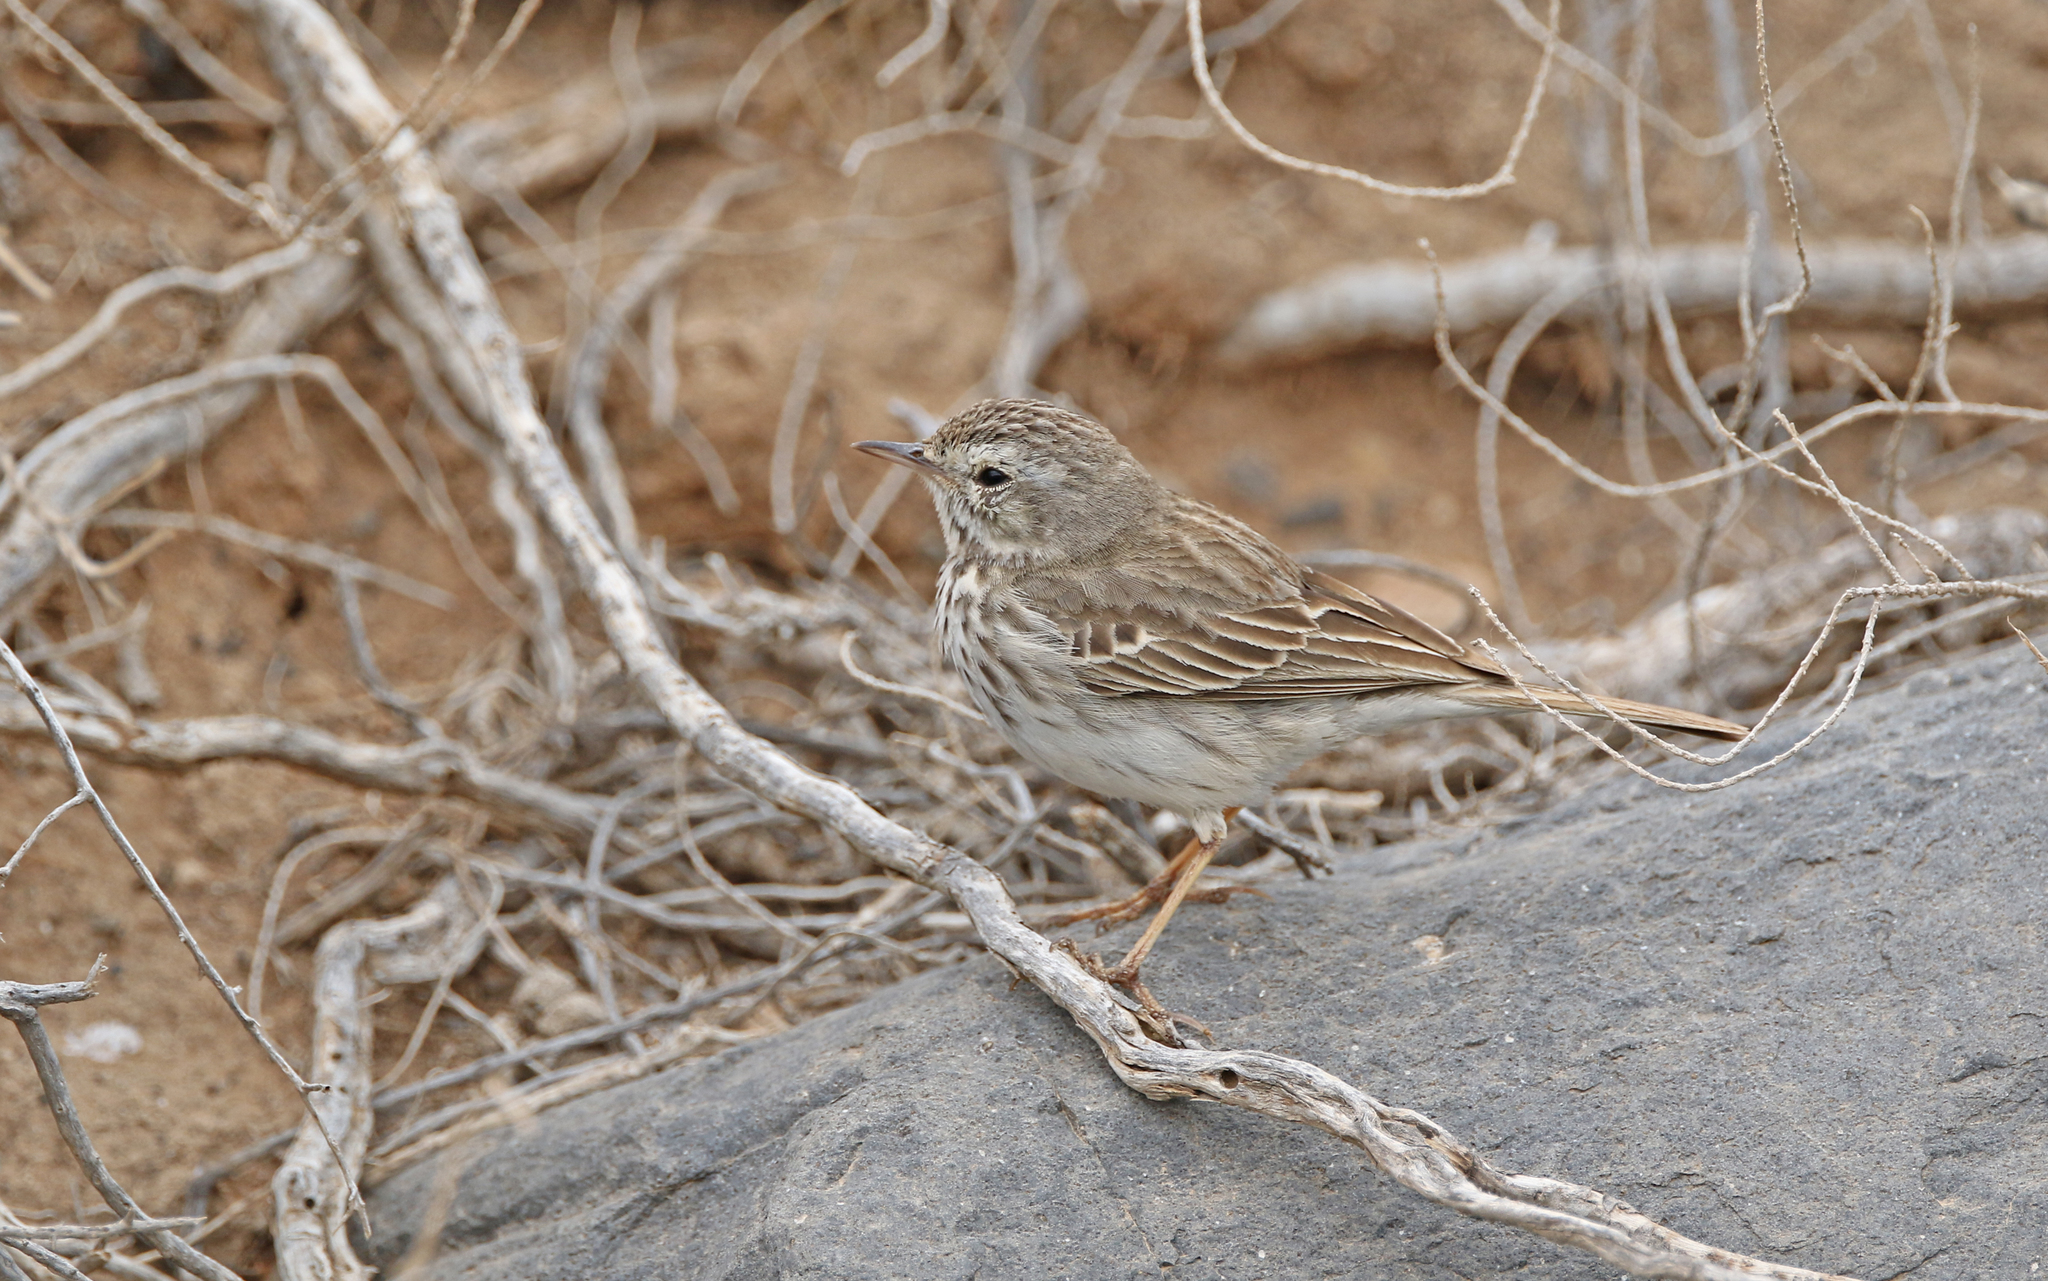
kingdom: Animalia
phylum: Chordata
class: Aves
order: Passeriformes
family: Motacillidae
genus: Anthus
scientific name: Anthus berthelotii
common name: Berthelot's pipit
